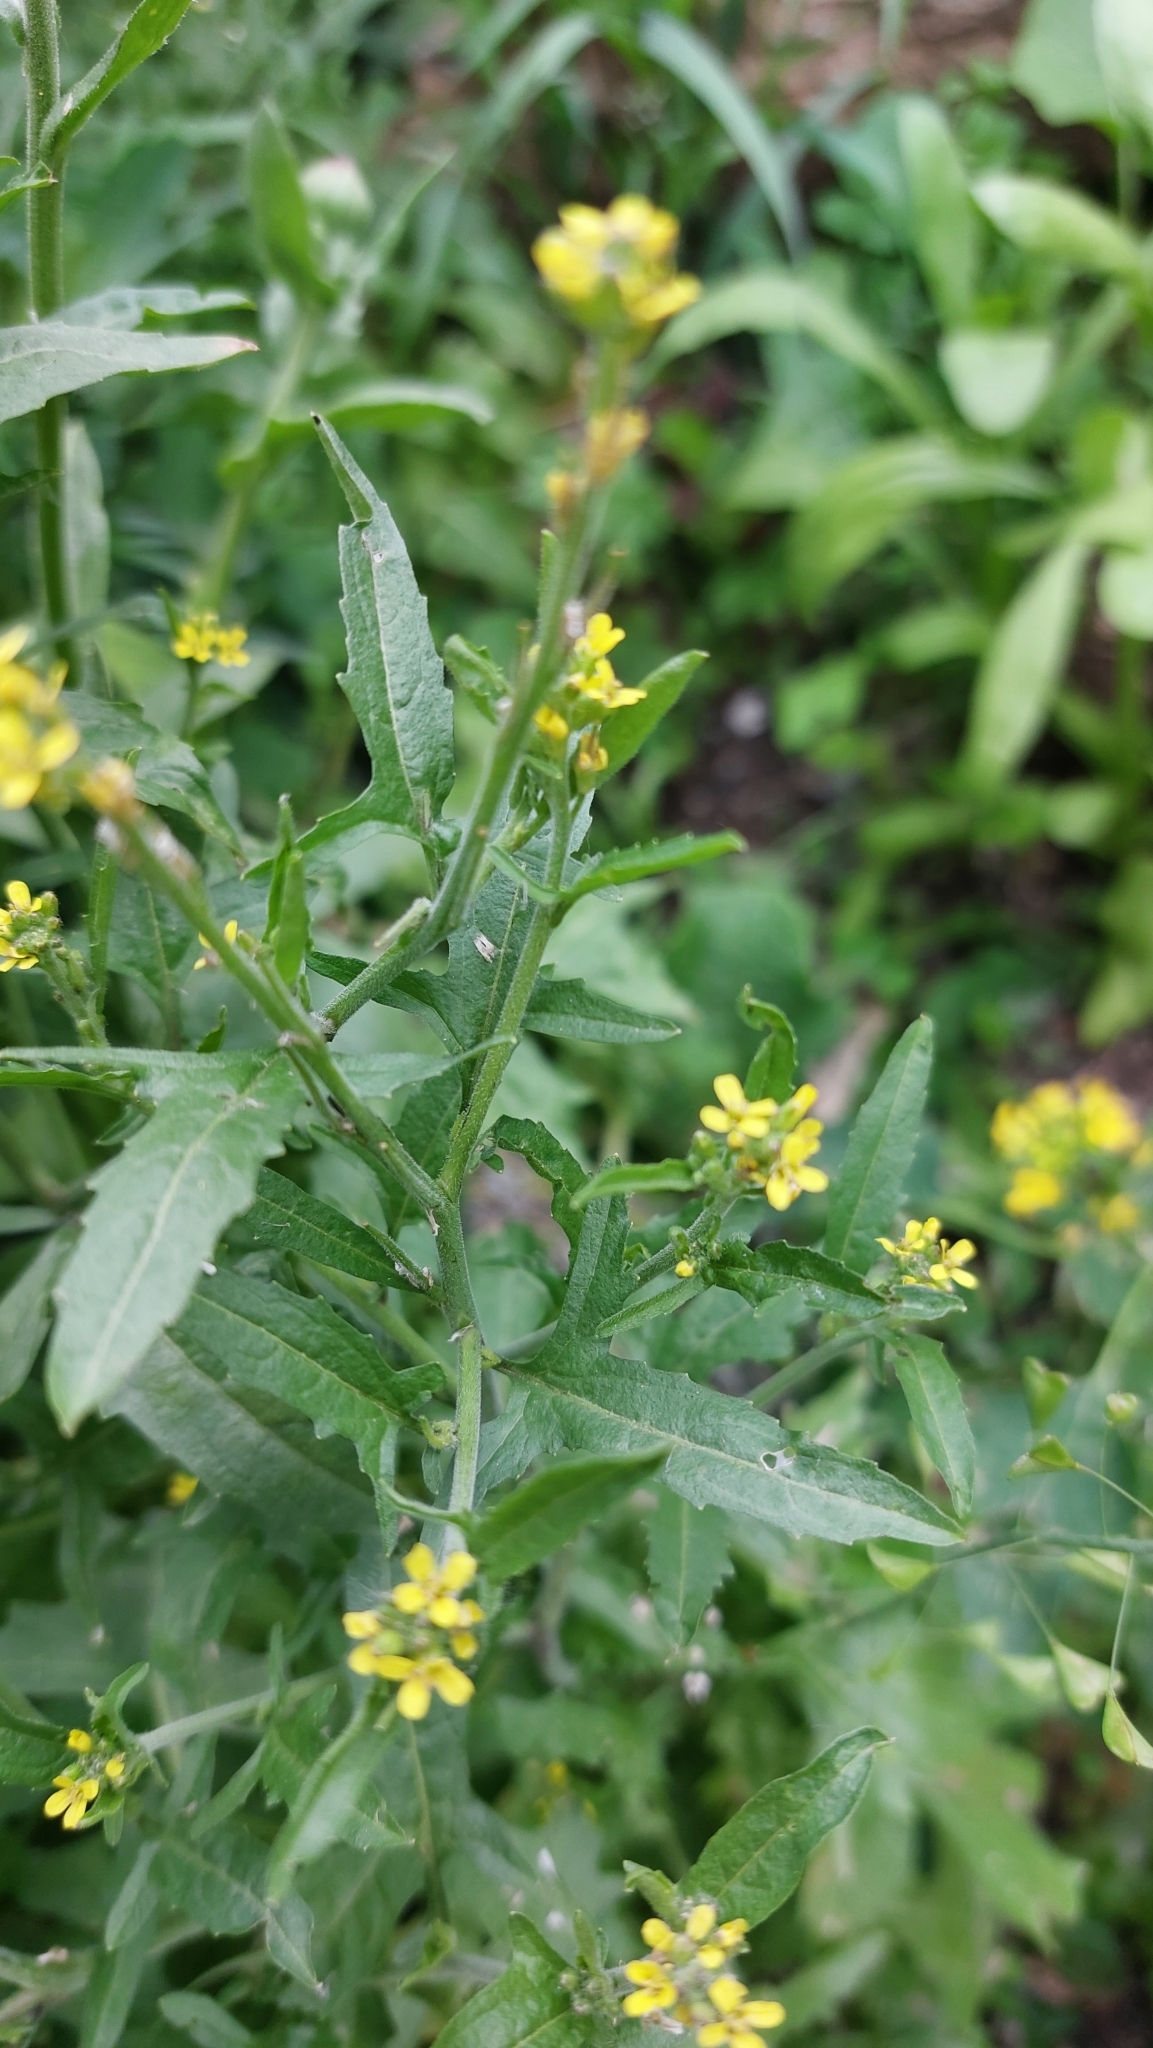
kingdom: Plantae
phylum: Tracheophyta
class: Magnoliopsida
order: Brassicales
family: Brassicaceae
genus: Sisymbrium
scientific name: Sisymbrium officinale
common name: Hedge mustard
